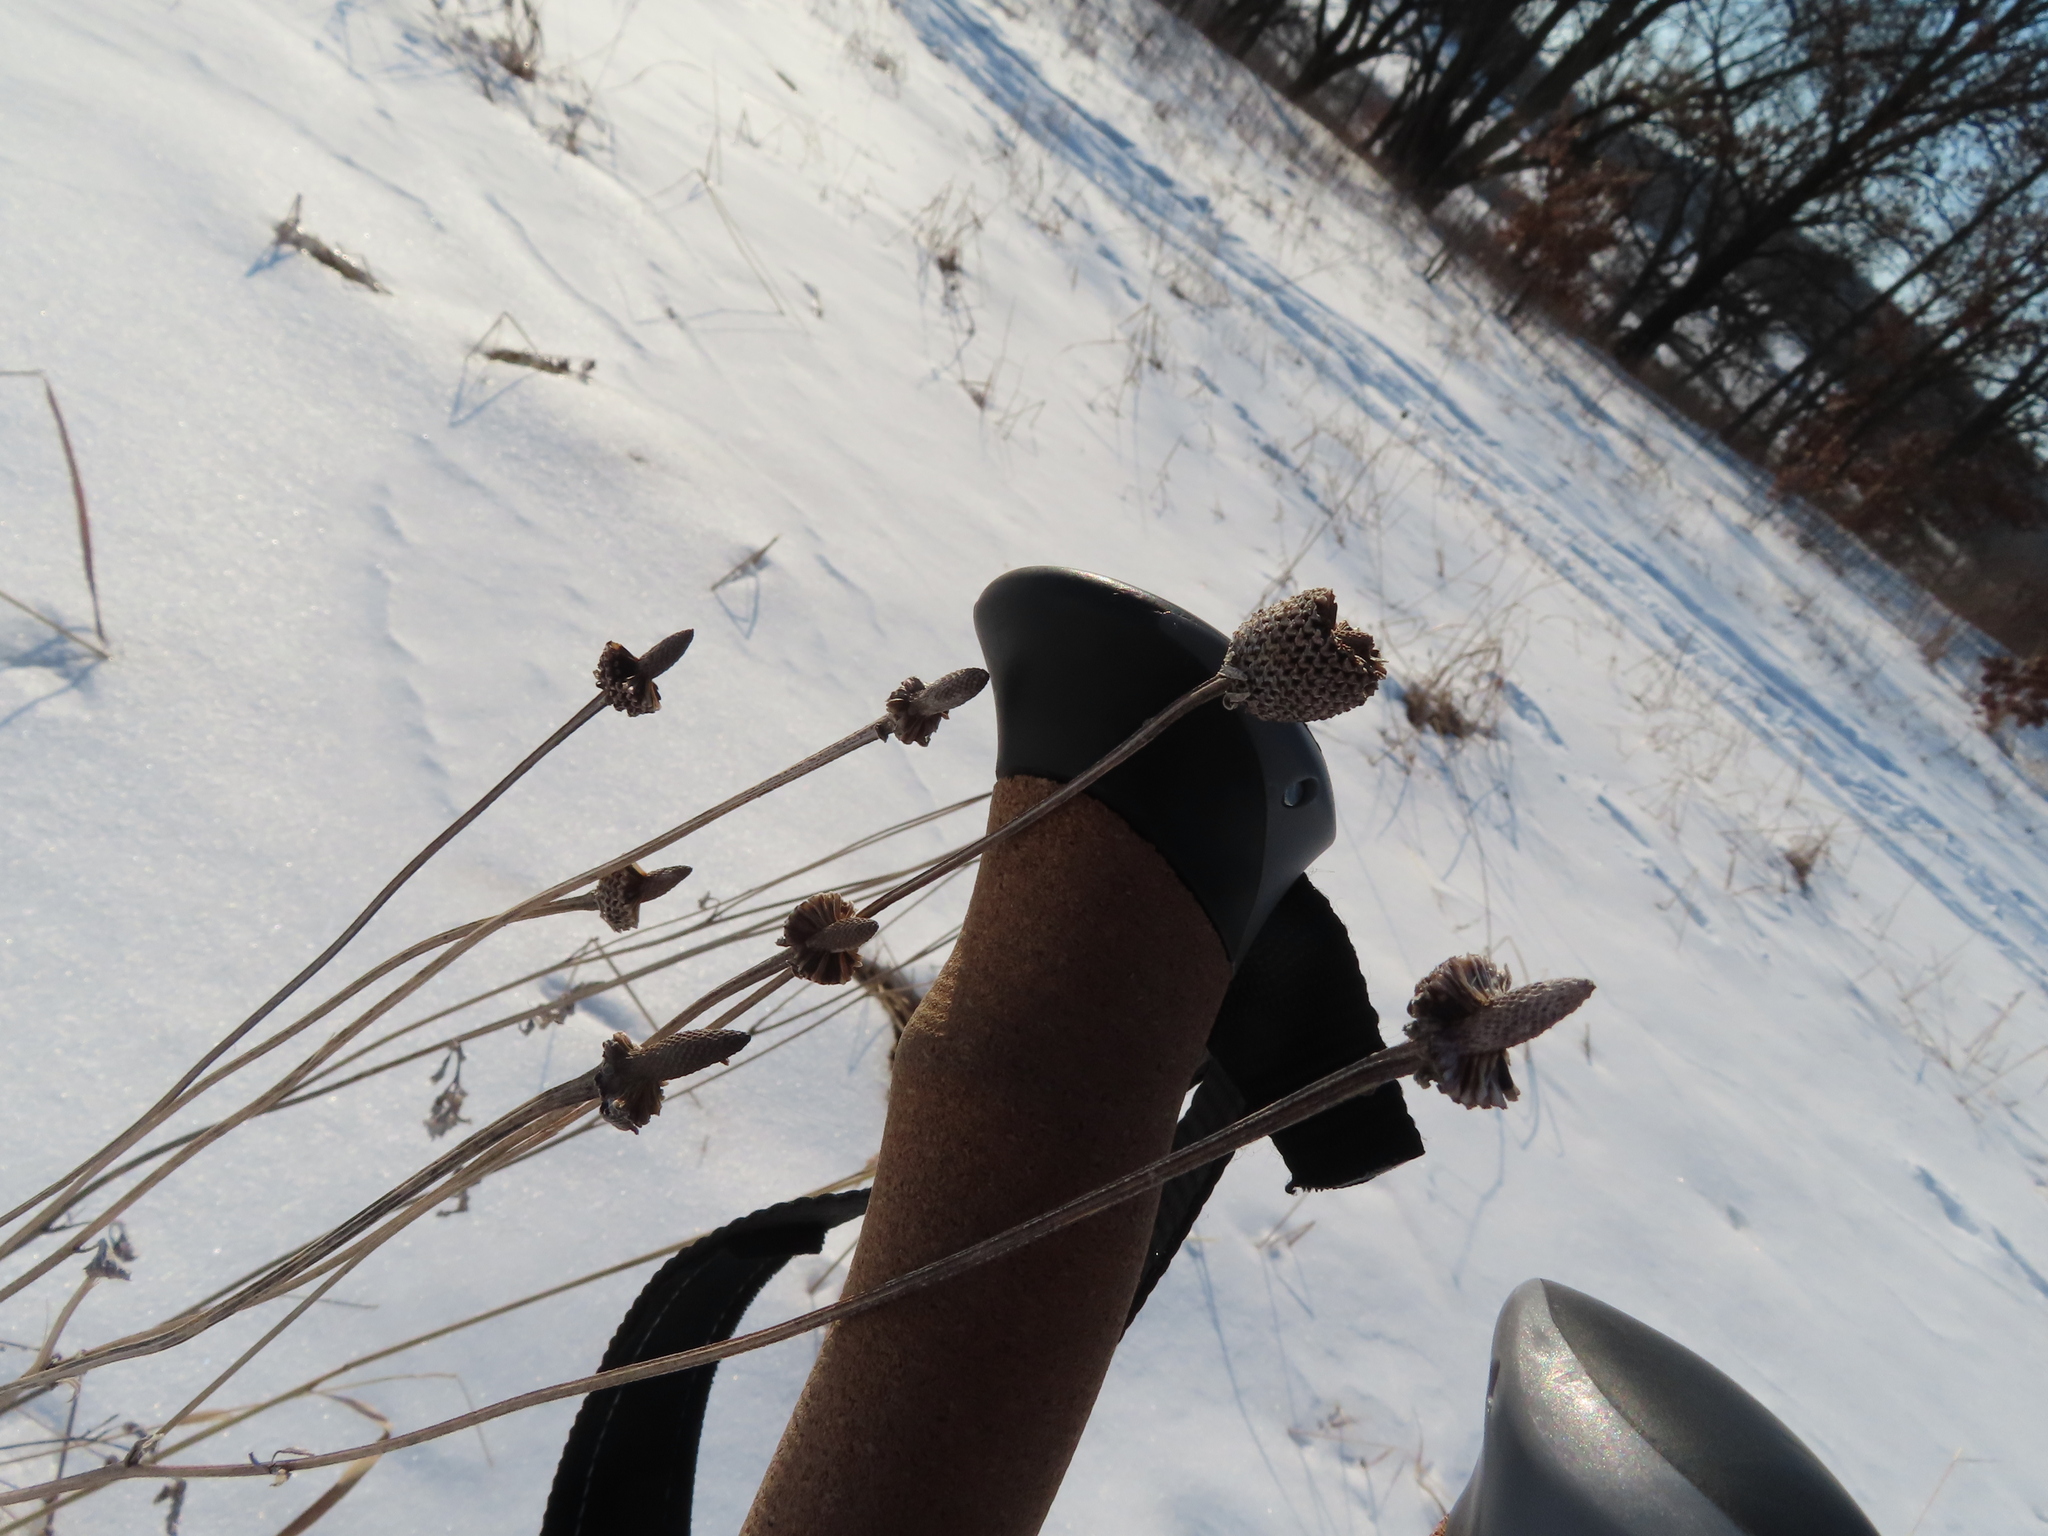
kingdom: Plantae
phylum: Tracheophyta
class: Magnoliopsida
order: Asterales
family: Asteraceae
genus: Ratibida
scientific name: Ratibida pinnata
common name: Drooping prairie-coneflower
